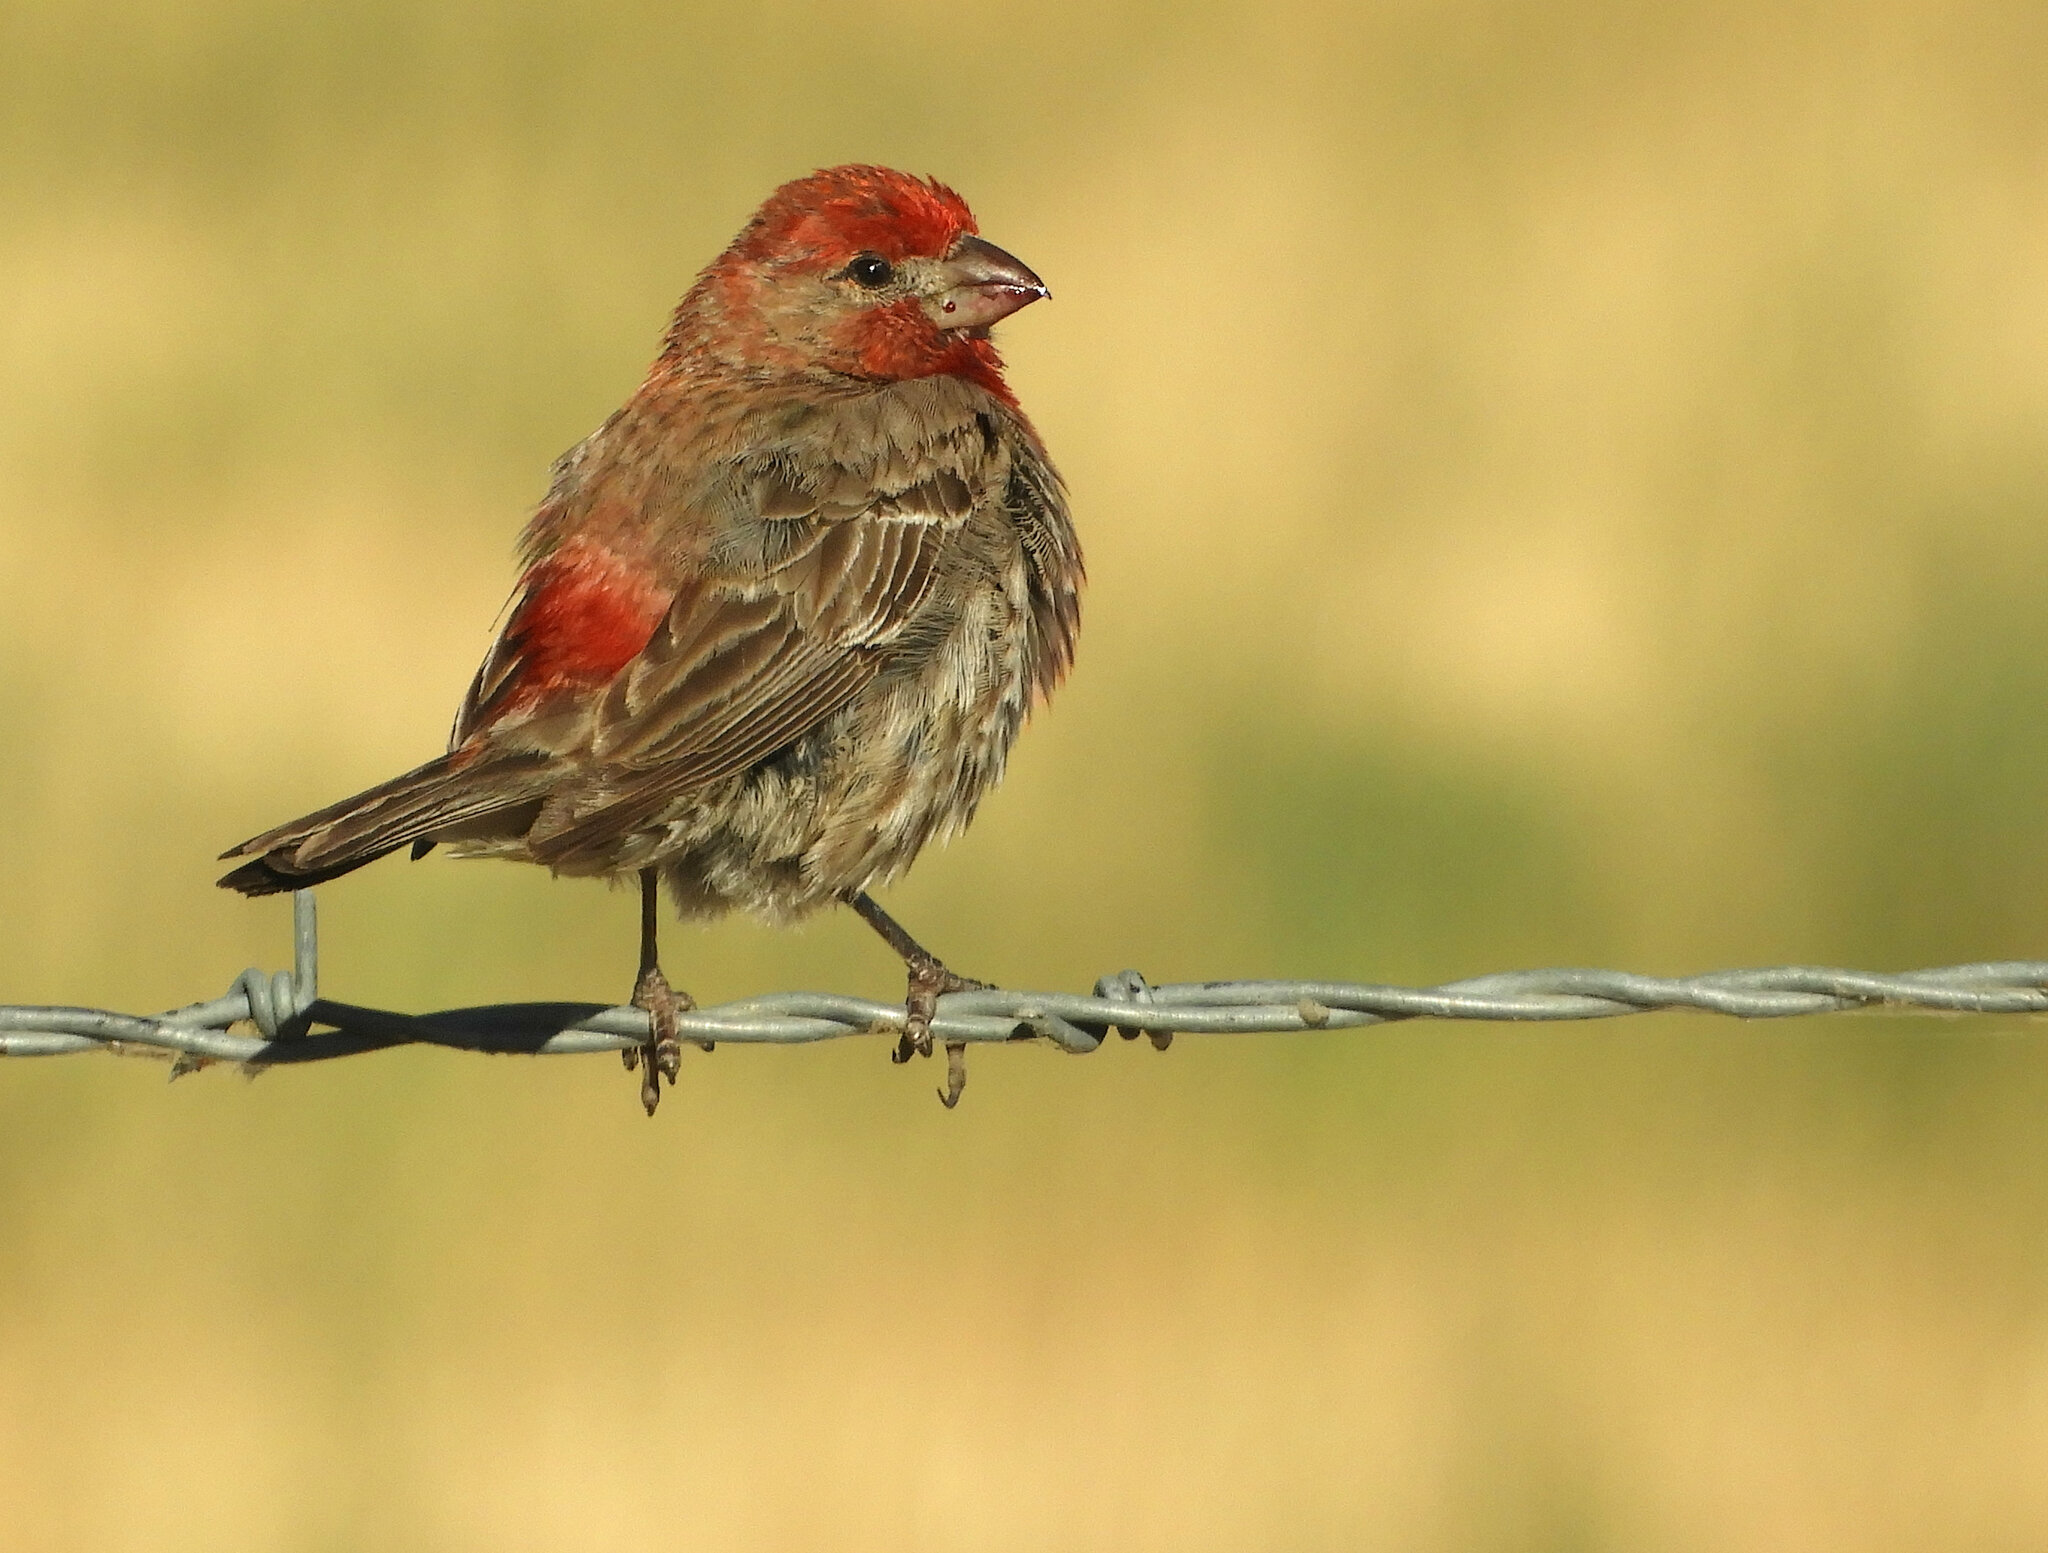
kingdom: Animalia
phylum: Chordata
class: Aves
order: Passeriformes
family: Fringillidae
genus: Haemorhous
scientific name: Haemorhous mexicanus
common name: House finch
